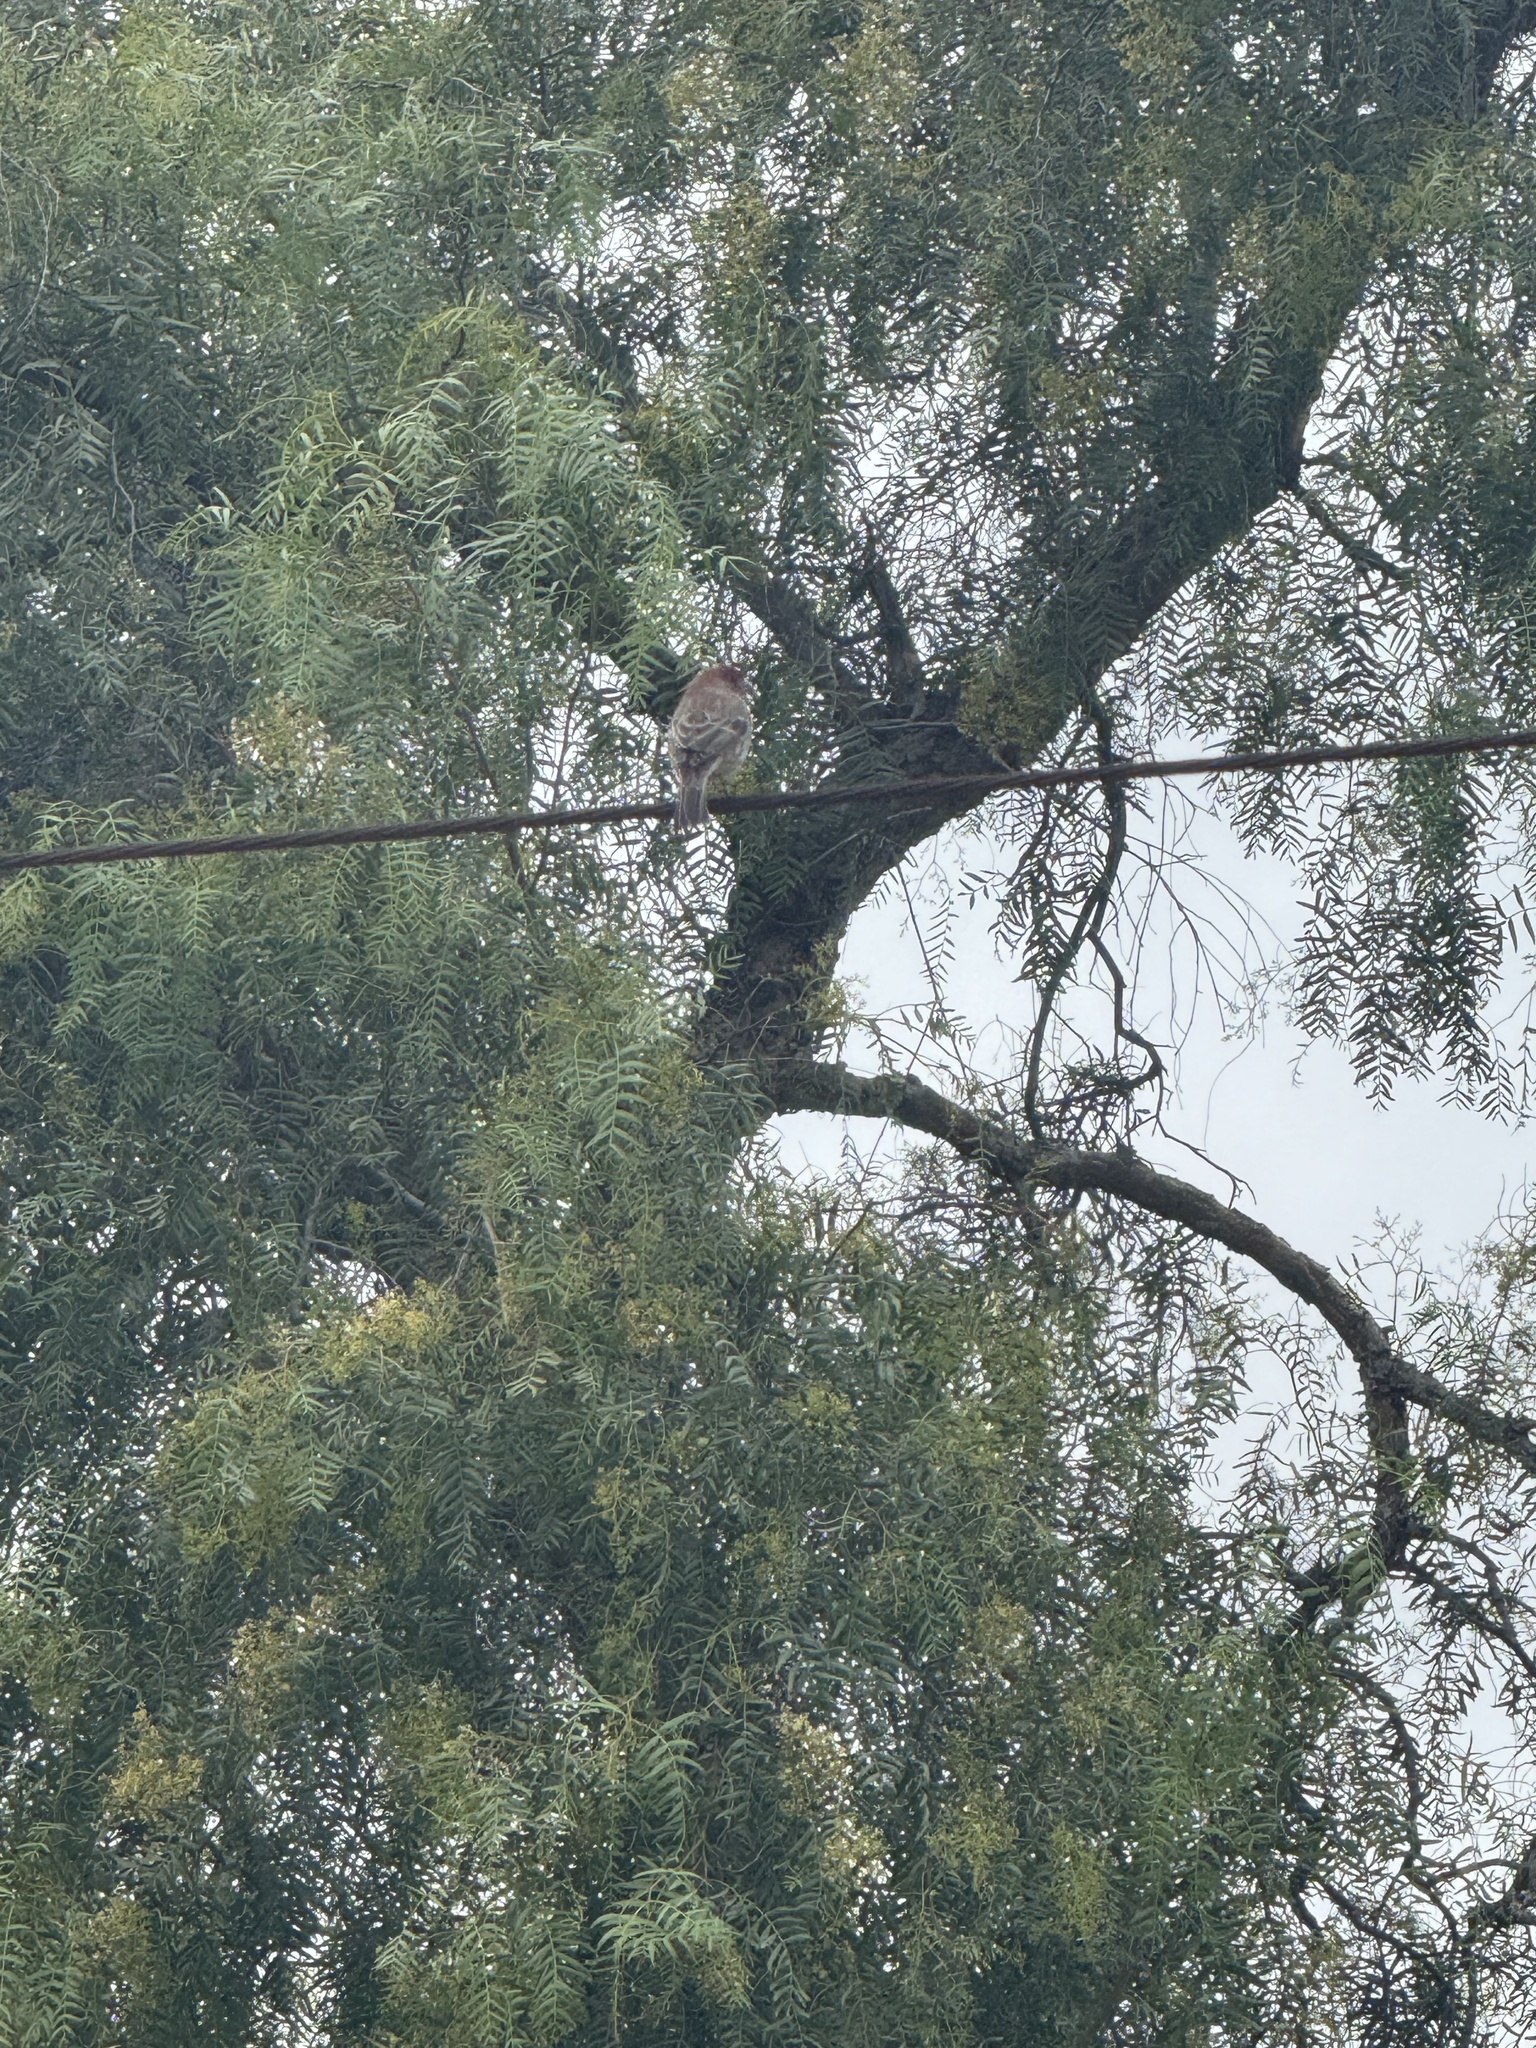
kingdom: Animalia
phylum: Chordata
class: Aves
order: Passeriformes
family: Fringillidae
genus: Haemorhous
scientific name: Haemorhous mexicanus
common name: House finch
